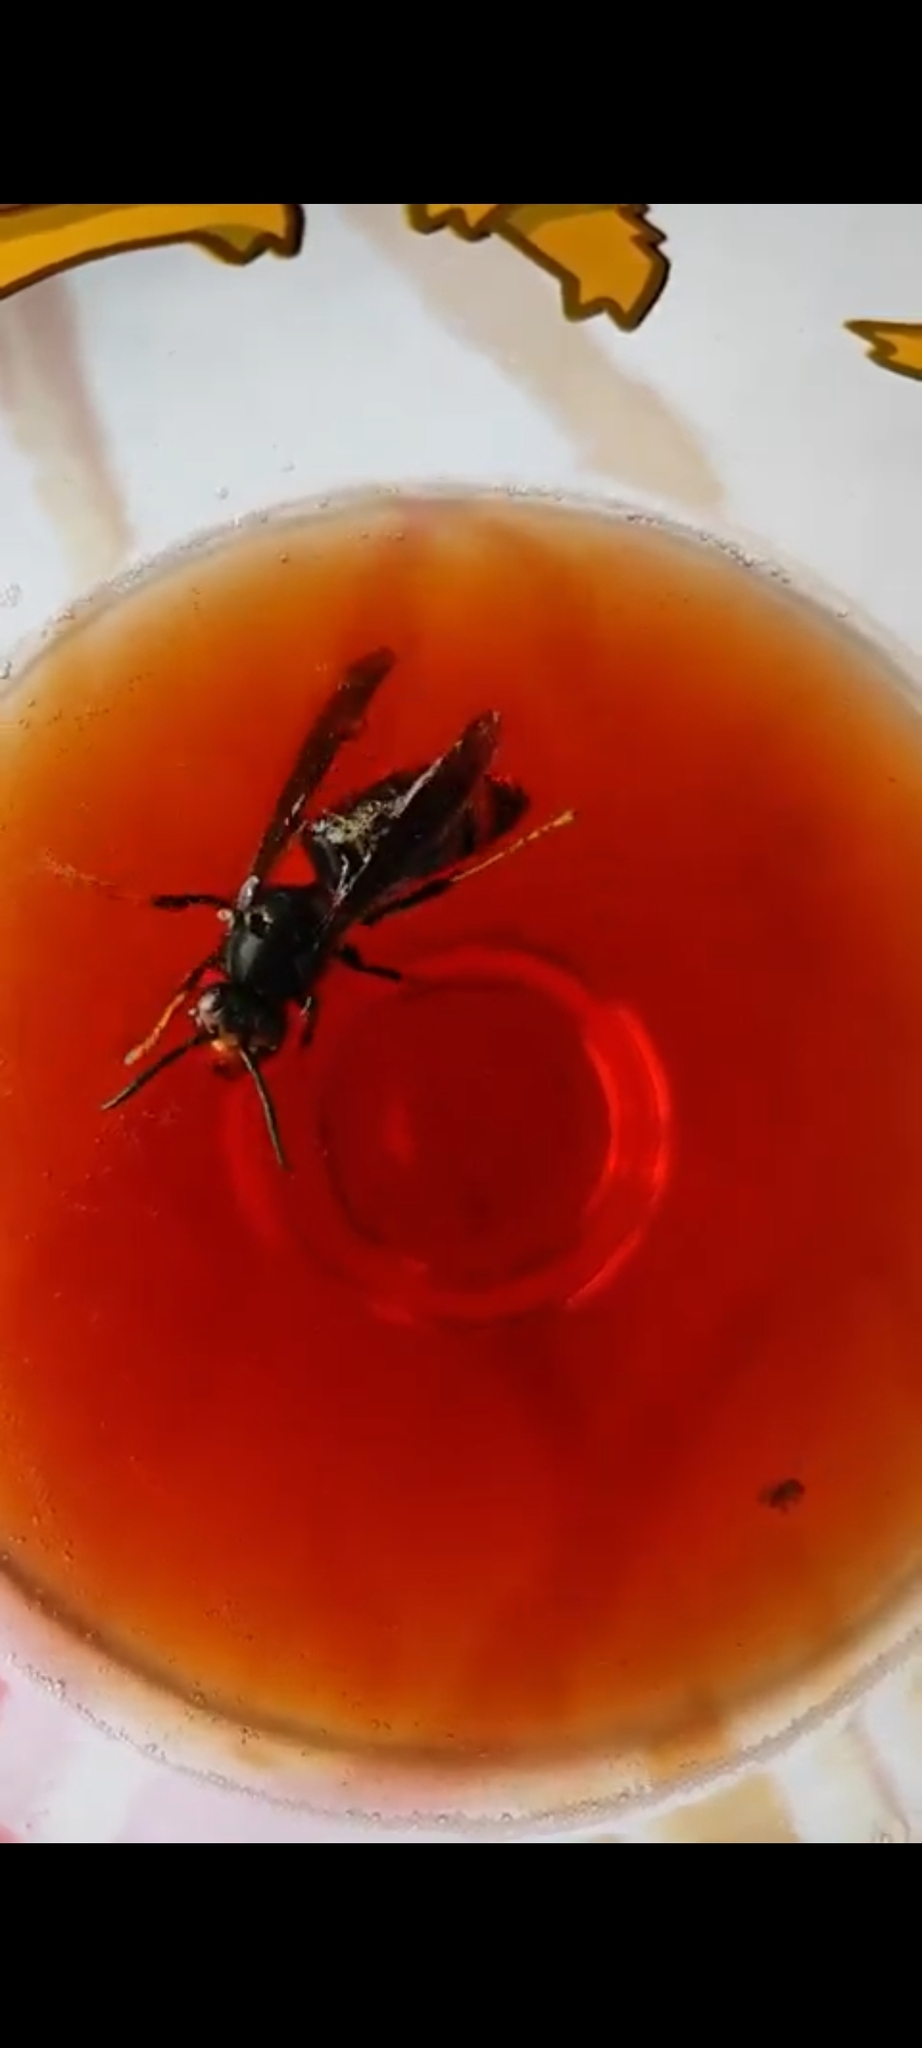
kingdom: Animalia
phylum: Arthropoda
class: Insecta
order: Hymenoptera
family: Vespidae
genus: Vespa
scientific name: Vespa velutina
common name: Asian hornet
